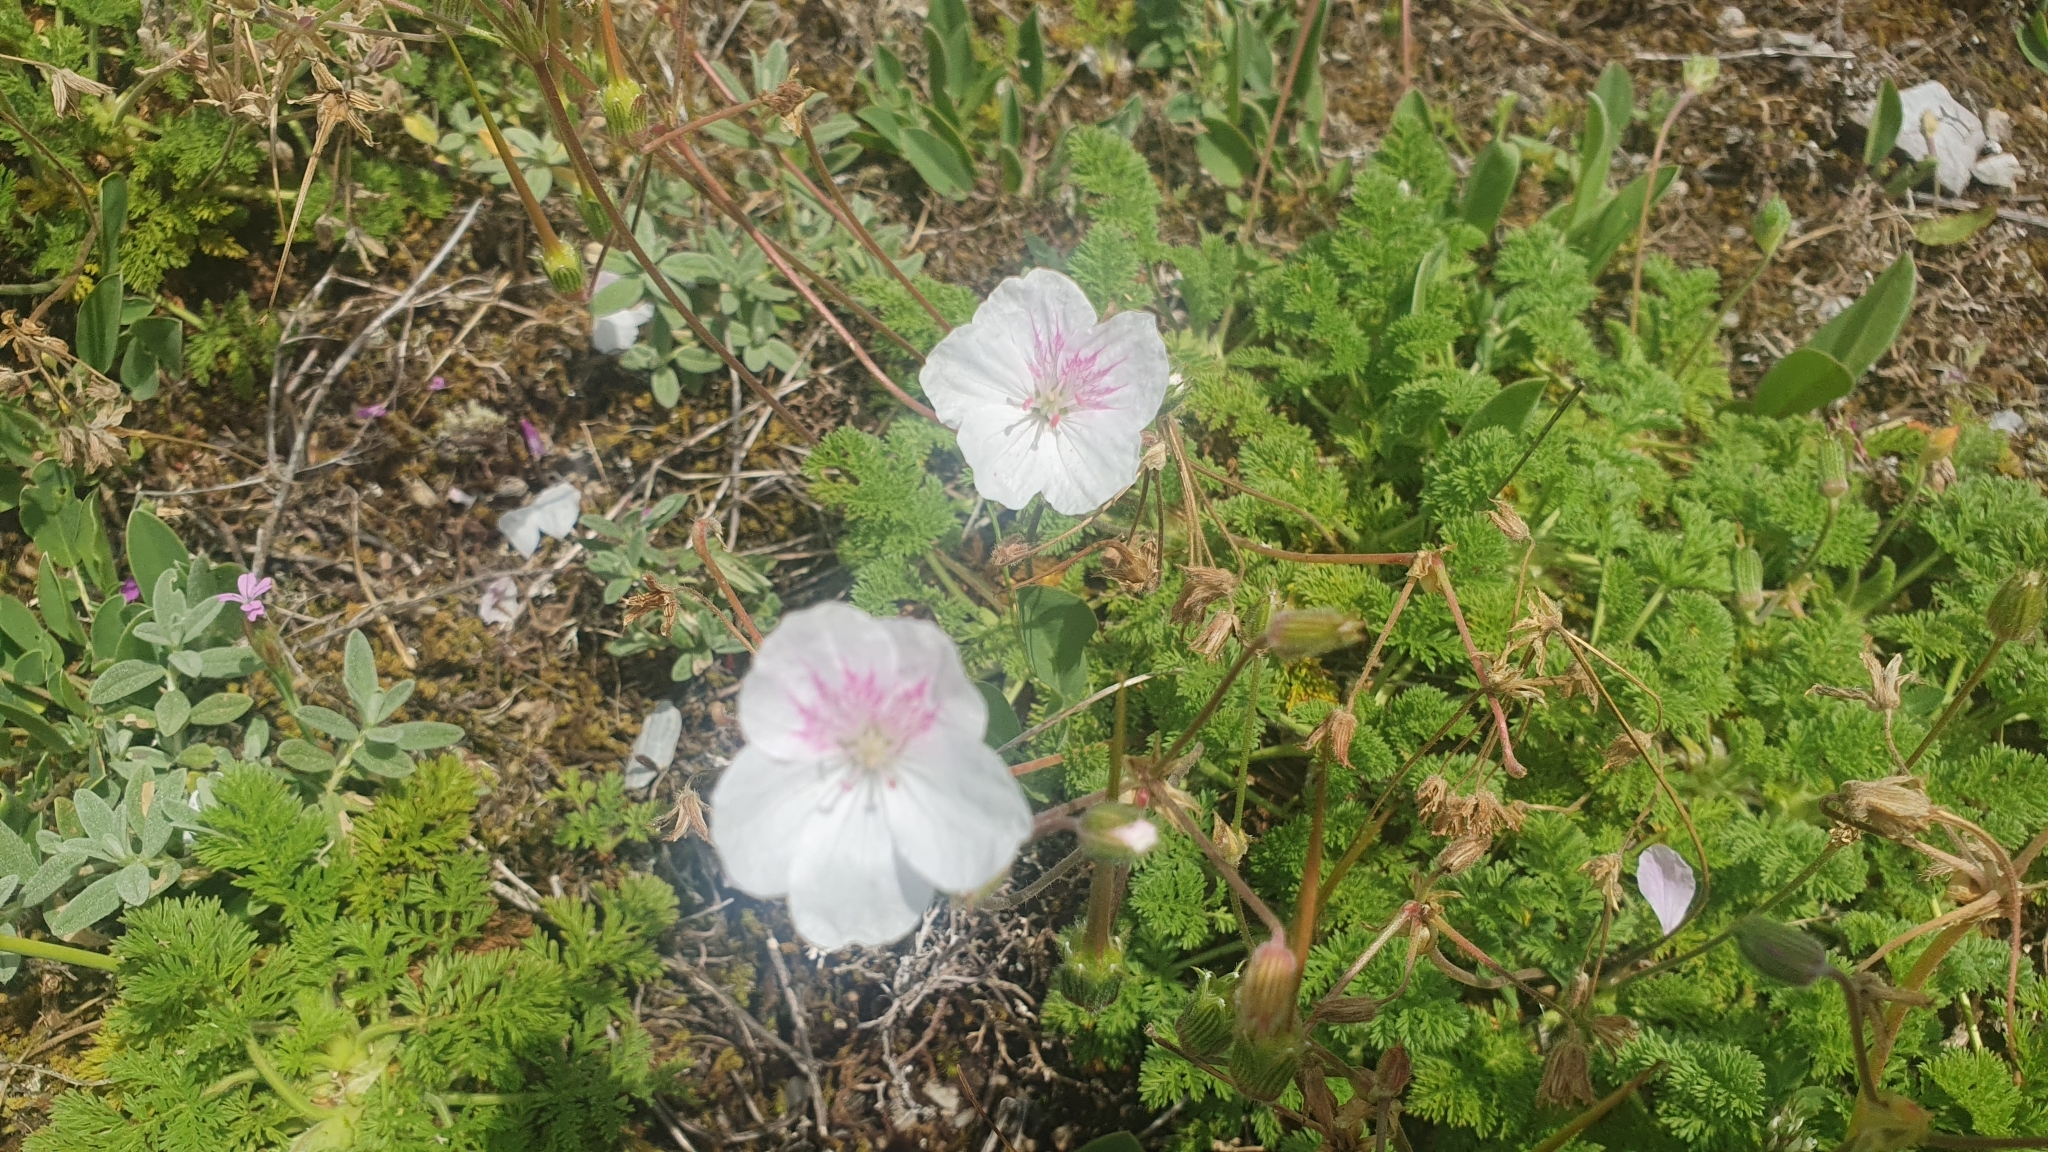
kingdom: Plantae
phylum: Tracheophyta
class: Magnoliopsida
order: Geraniales
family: Geraniaceae
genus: Erodium
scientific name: Erodium glandulosum
